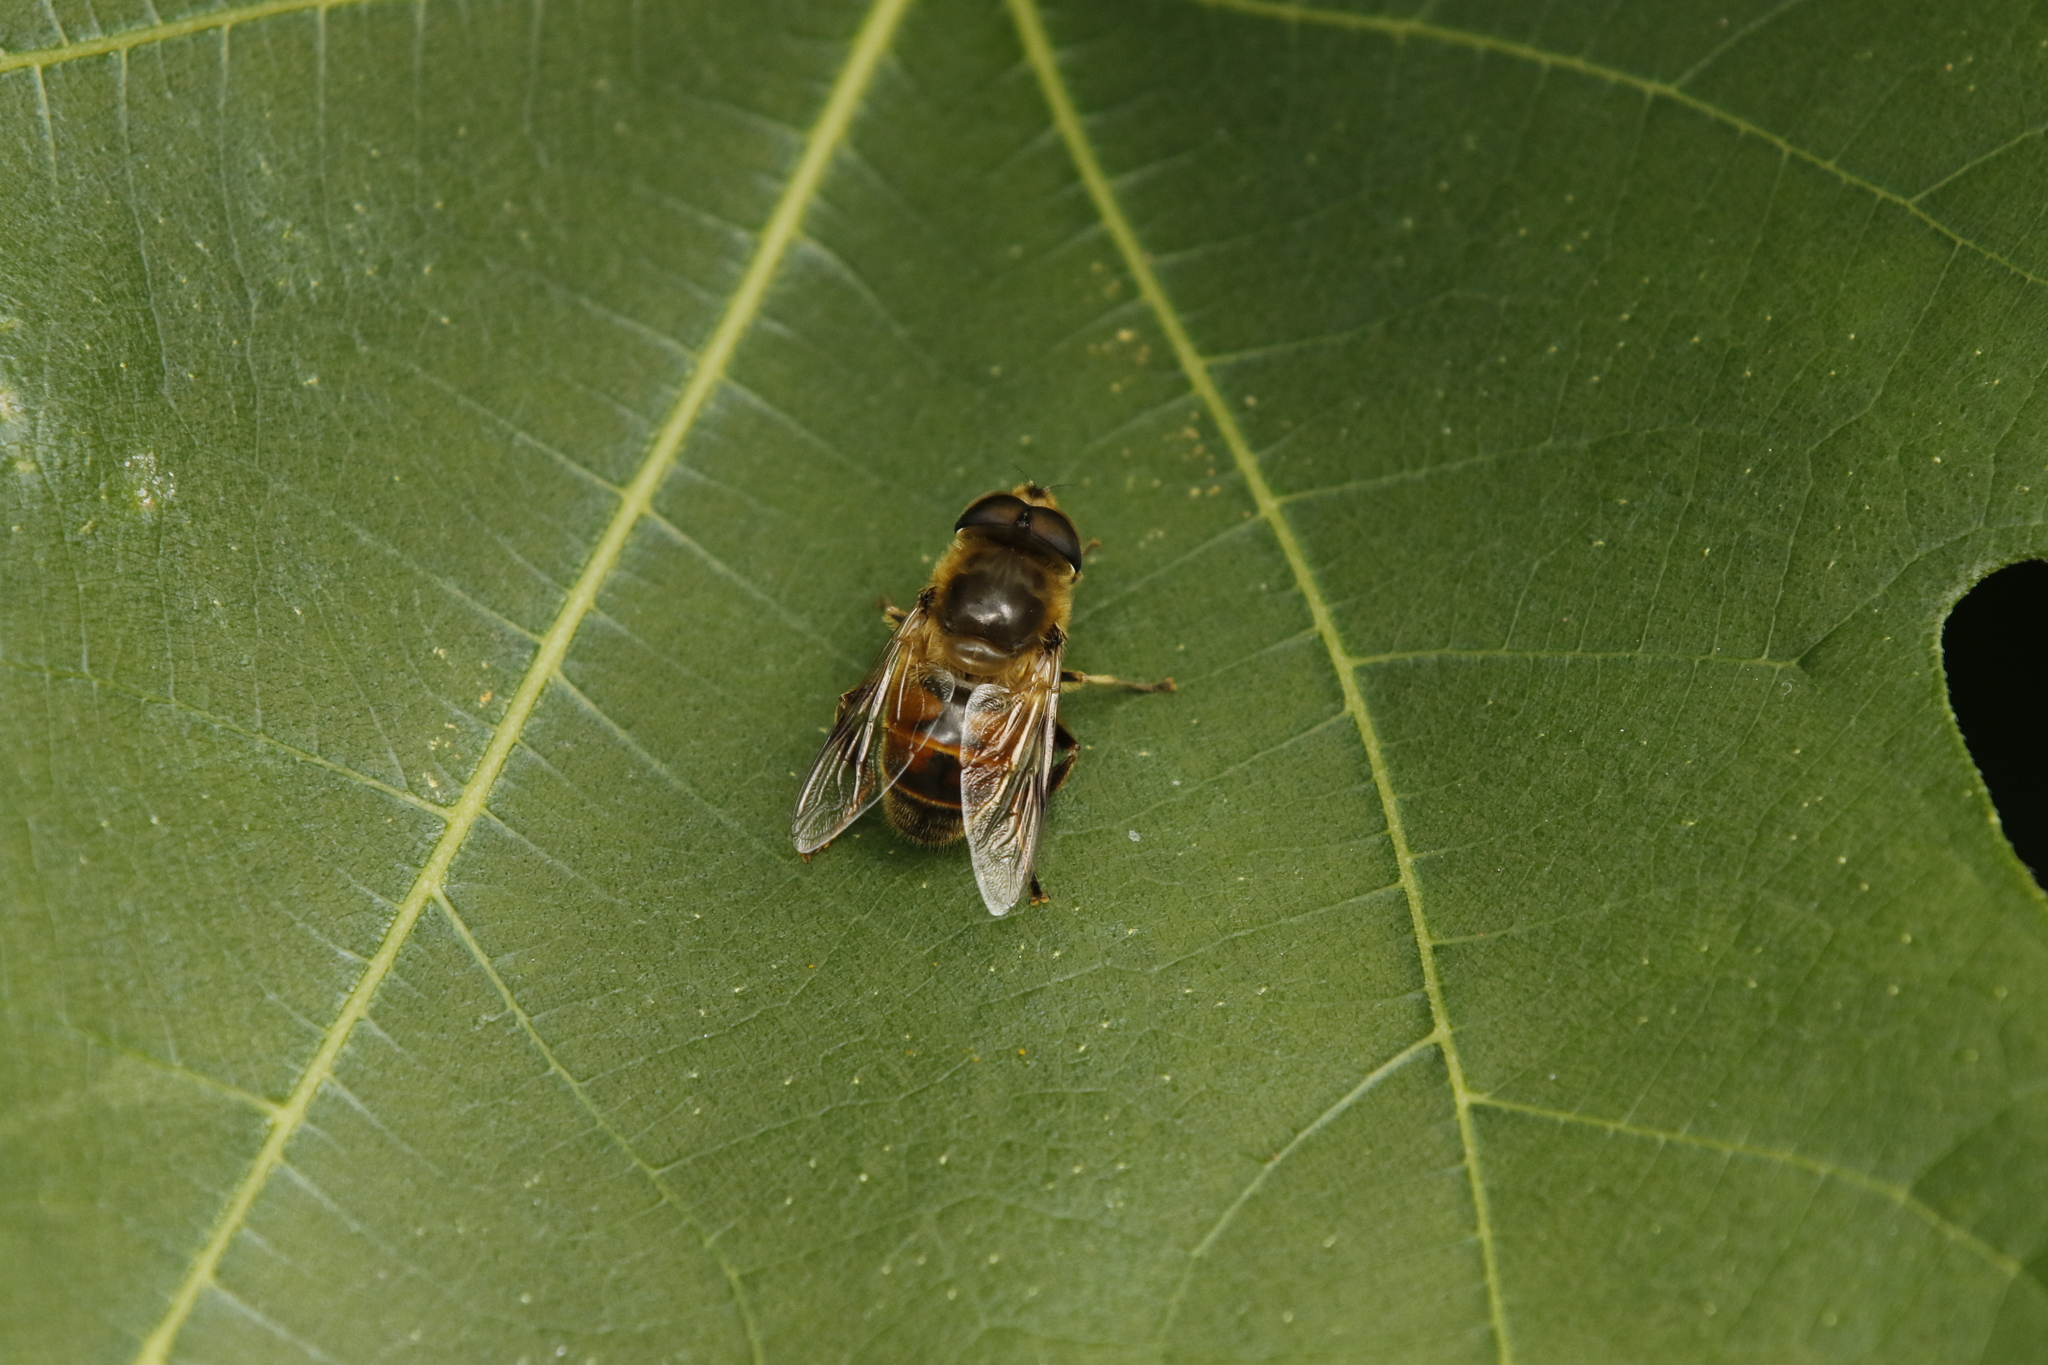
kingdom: Animalia
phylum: Arthropoda
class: Insecta
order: Diptera
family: Syrphidae
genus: Eristalis
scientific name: Eristalis tenax
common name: Drone fly
